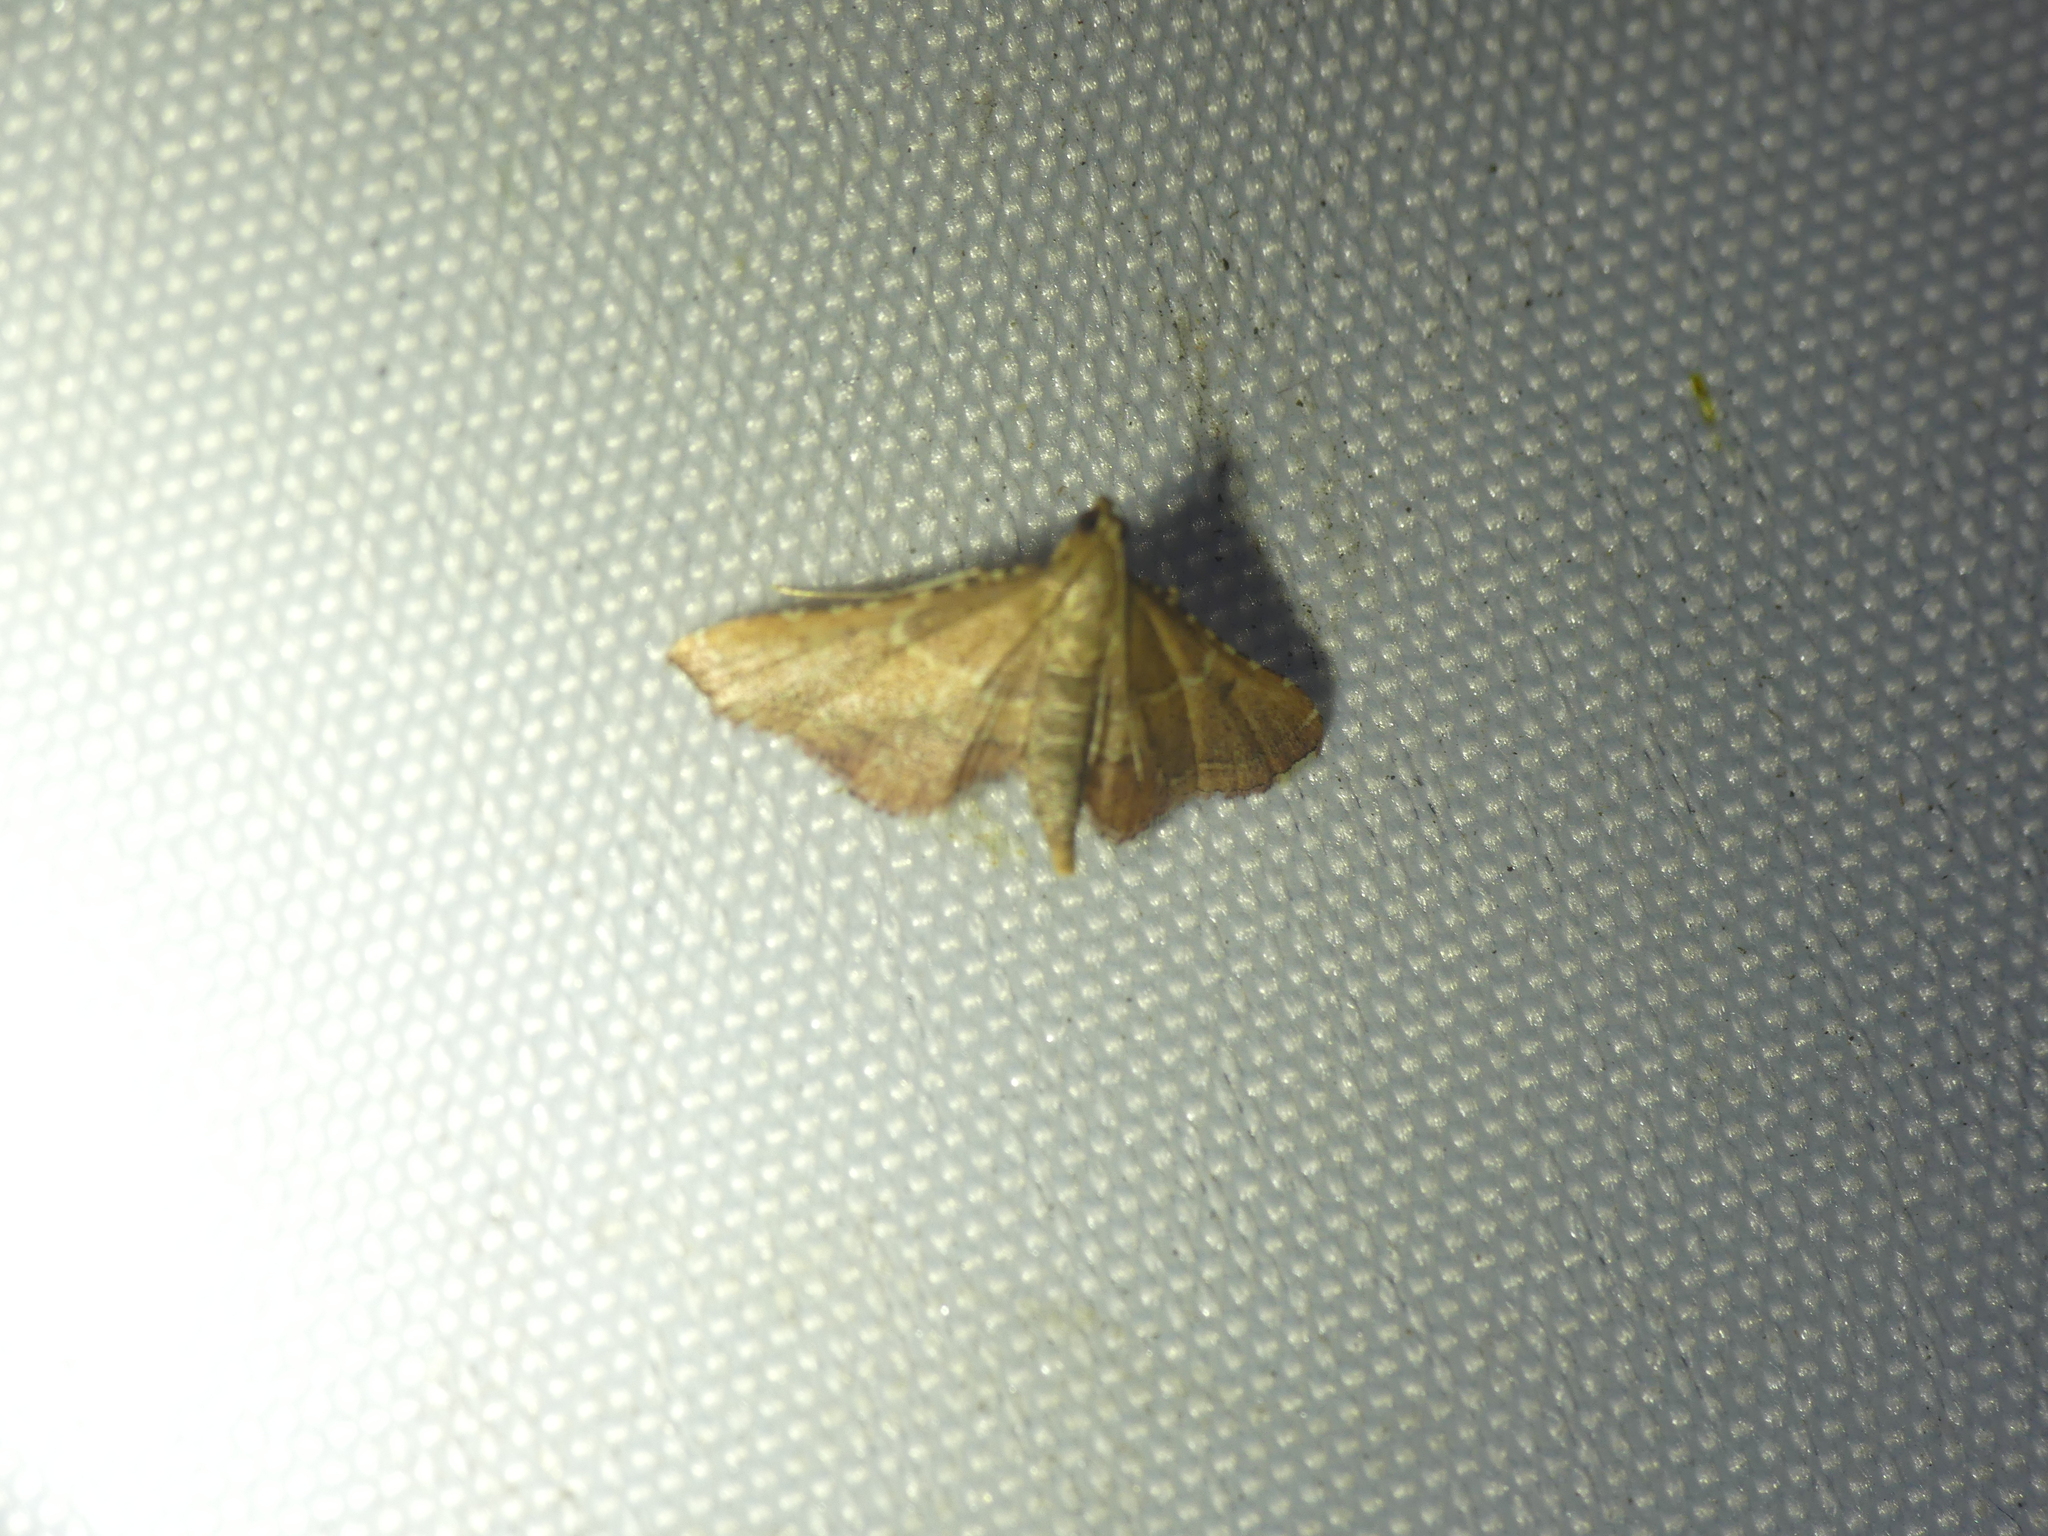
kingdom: Animalia
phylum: Arthropoda
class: Insecta
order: Lepidoptera
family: Pyralidae
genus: Endotricha
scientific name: Endotricha flammealis
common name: Rosy tabby
